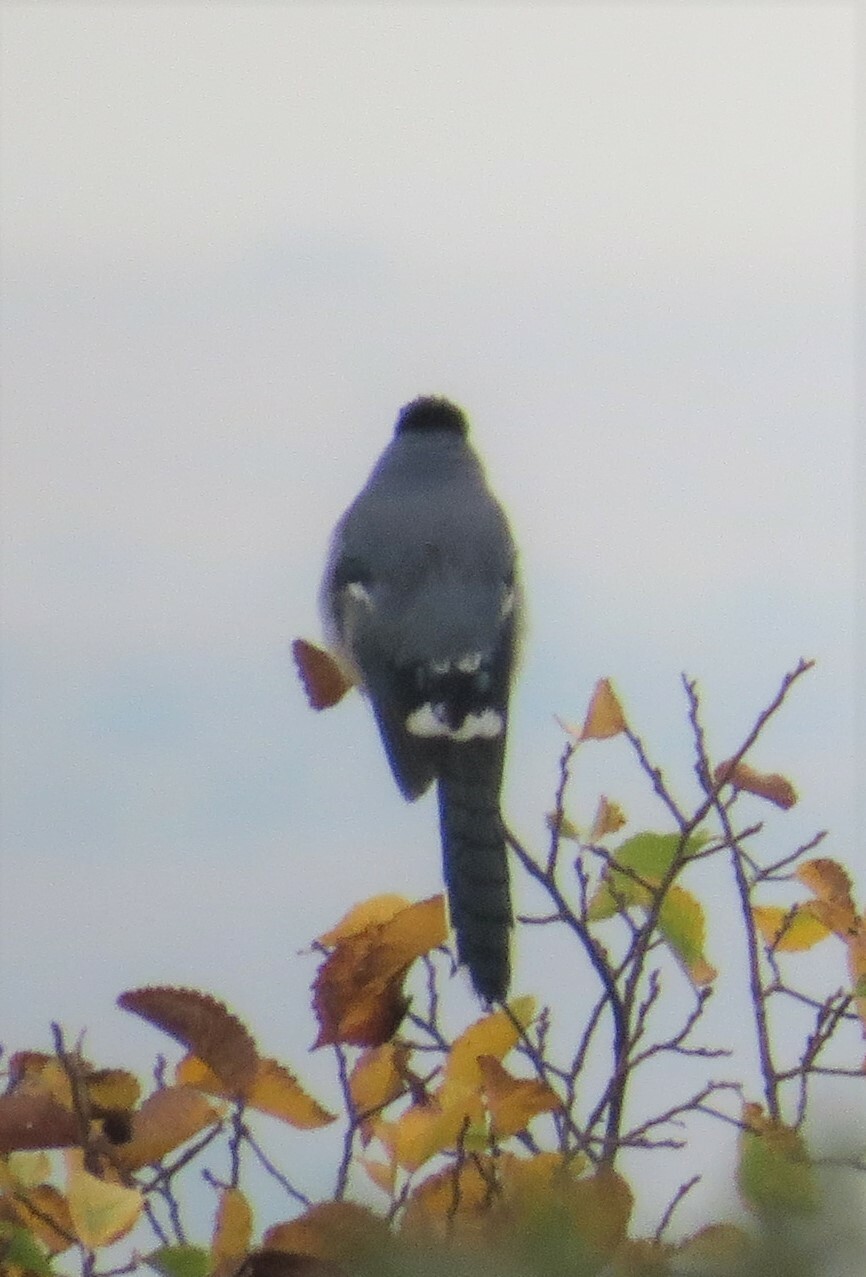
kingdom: Animalia
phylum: Chordata
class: Aves
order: Passeriformes
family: Corvidae
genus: Cyanocitta
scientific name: Cyanocitta cristata
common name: Blue jay
